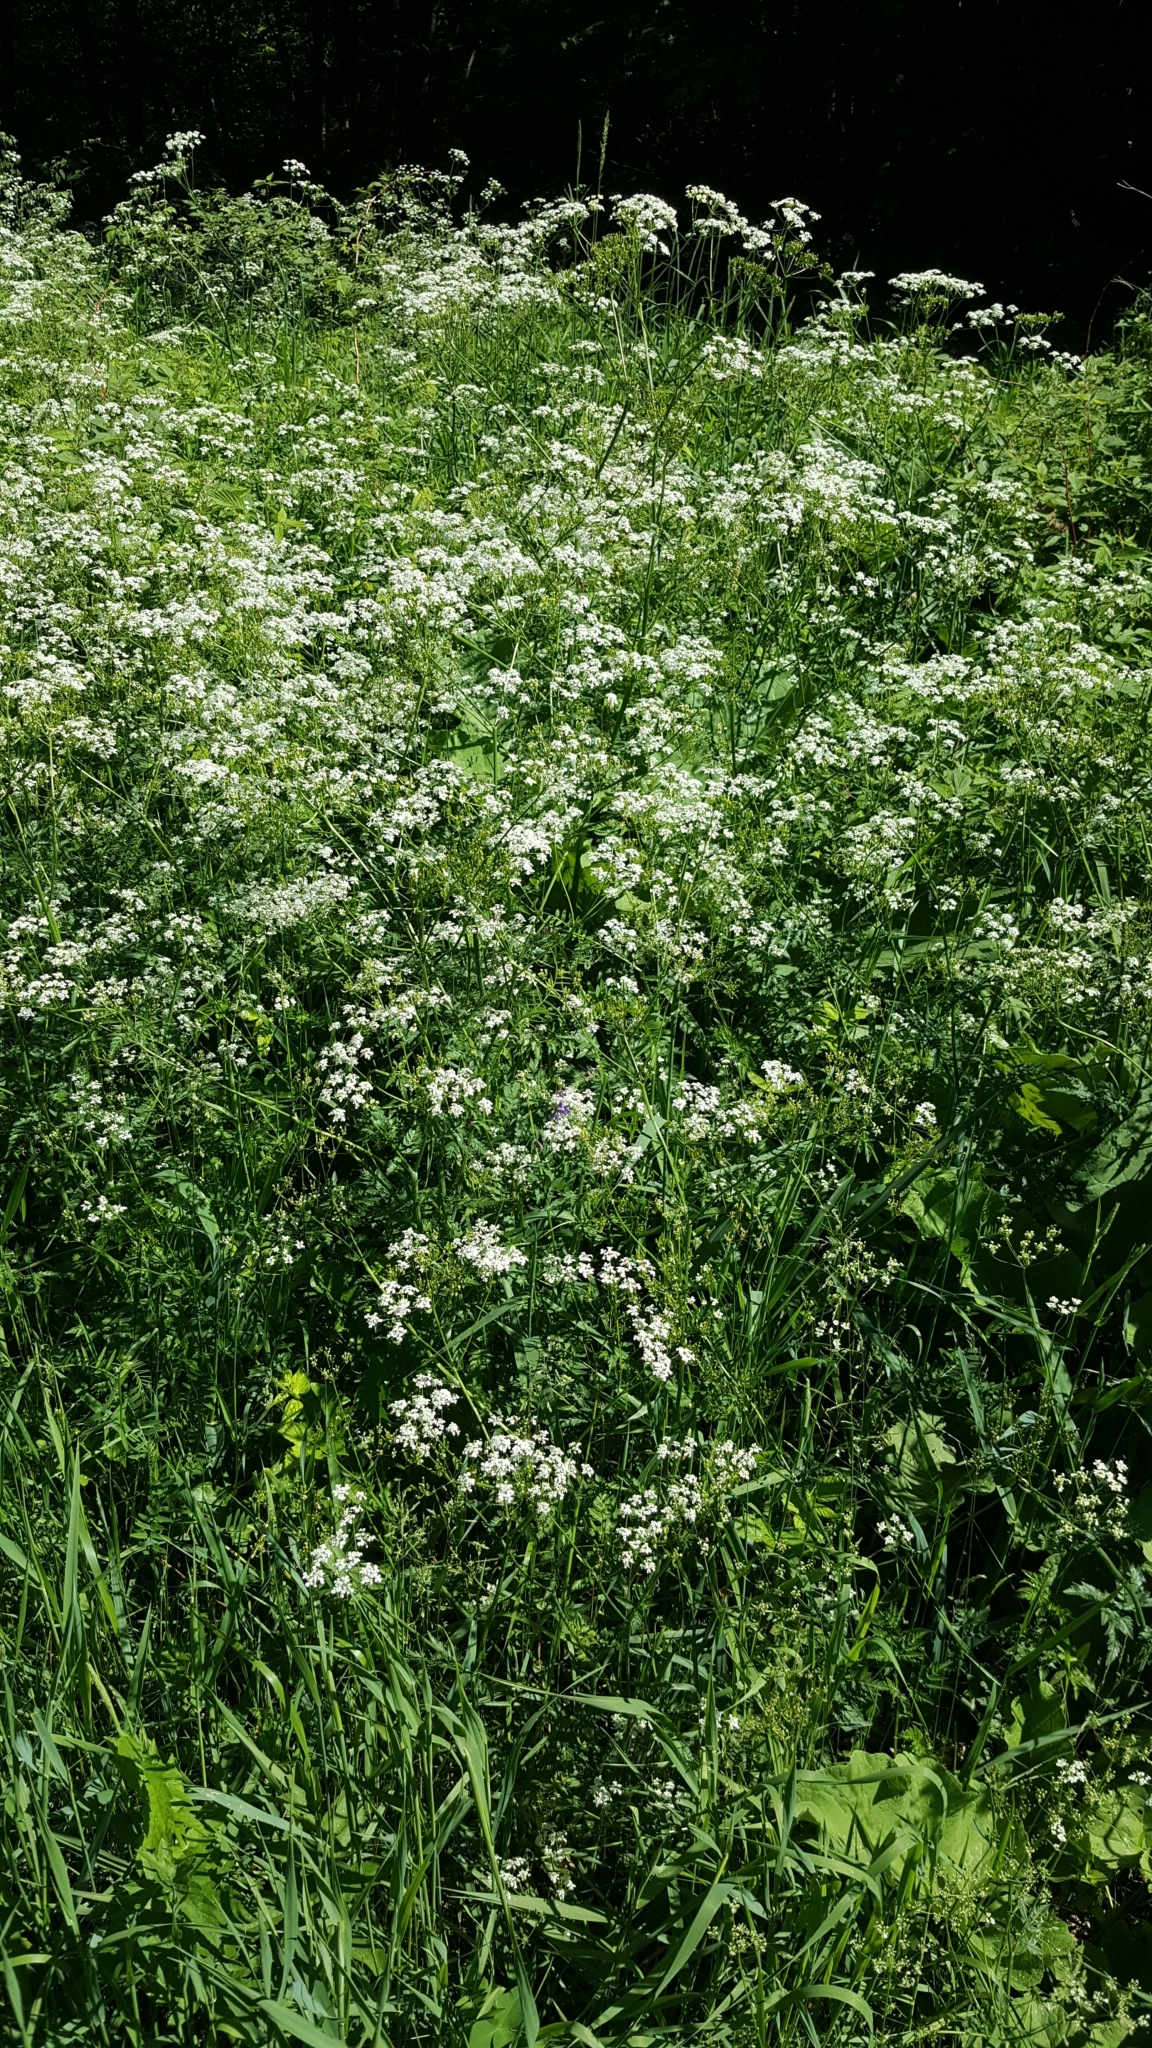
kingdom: Plantae
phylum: Tracheophyta
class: Magnoliopsida
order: Apiales
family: Apiaceae
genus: Anthriscus
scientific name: Anthriscus sylvestris
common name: Cow parsley
